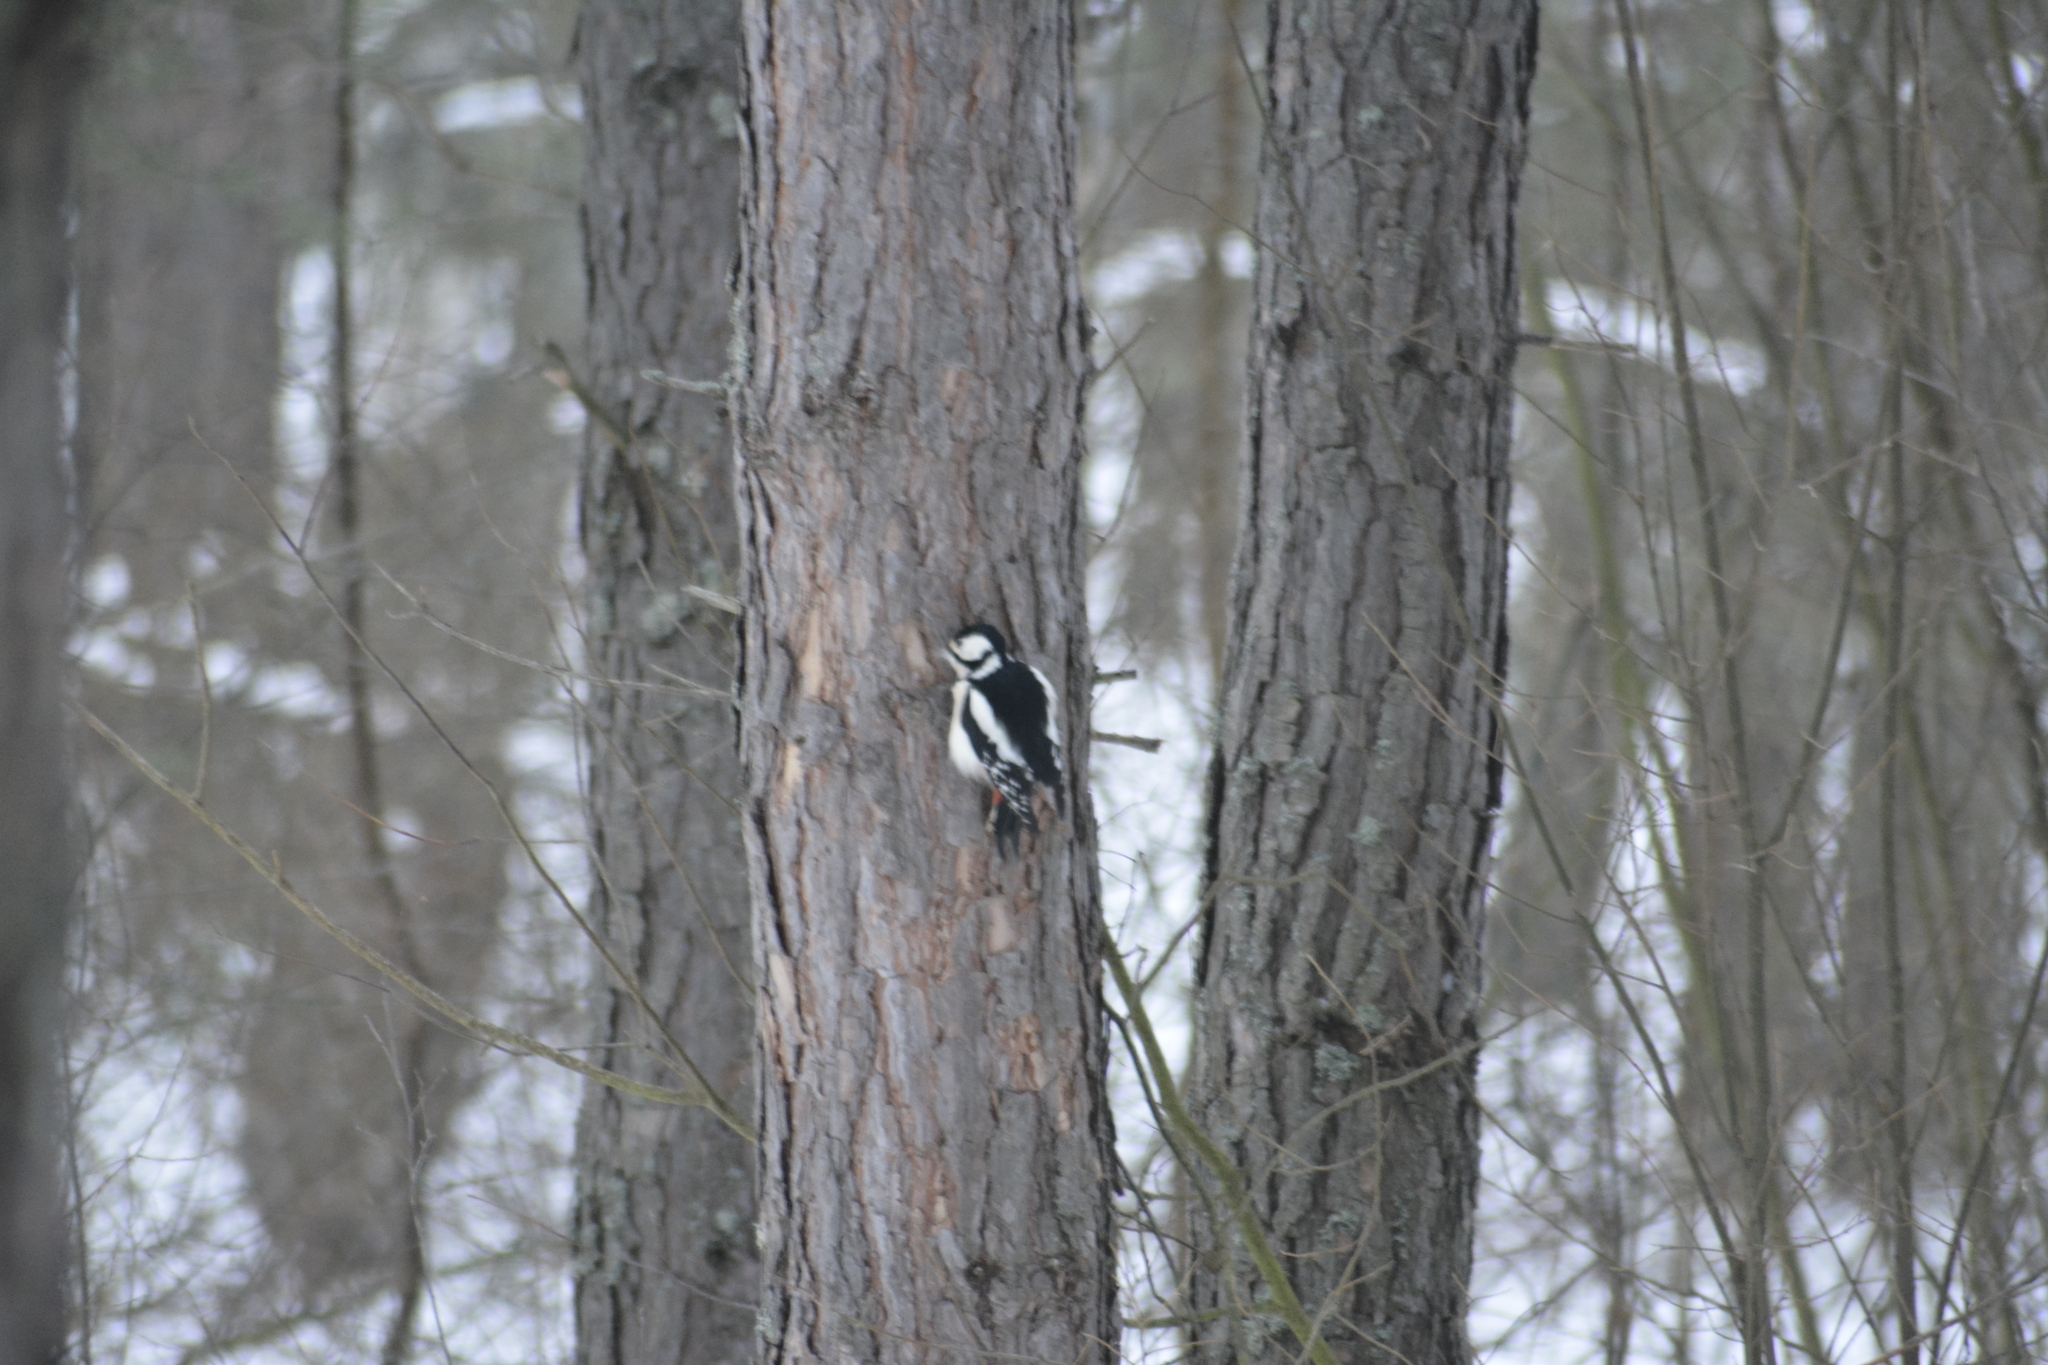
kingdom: Animalia
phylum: Chordata
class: Aves
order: Piciformes
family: Picidae
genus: Dendrocopos
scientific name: Dendrocopos major
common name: Great spotted woodpecker
